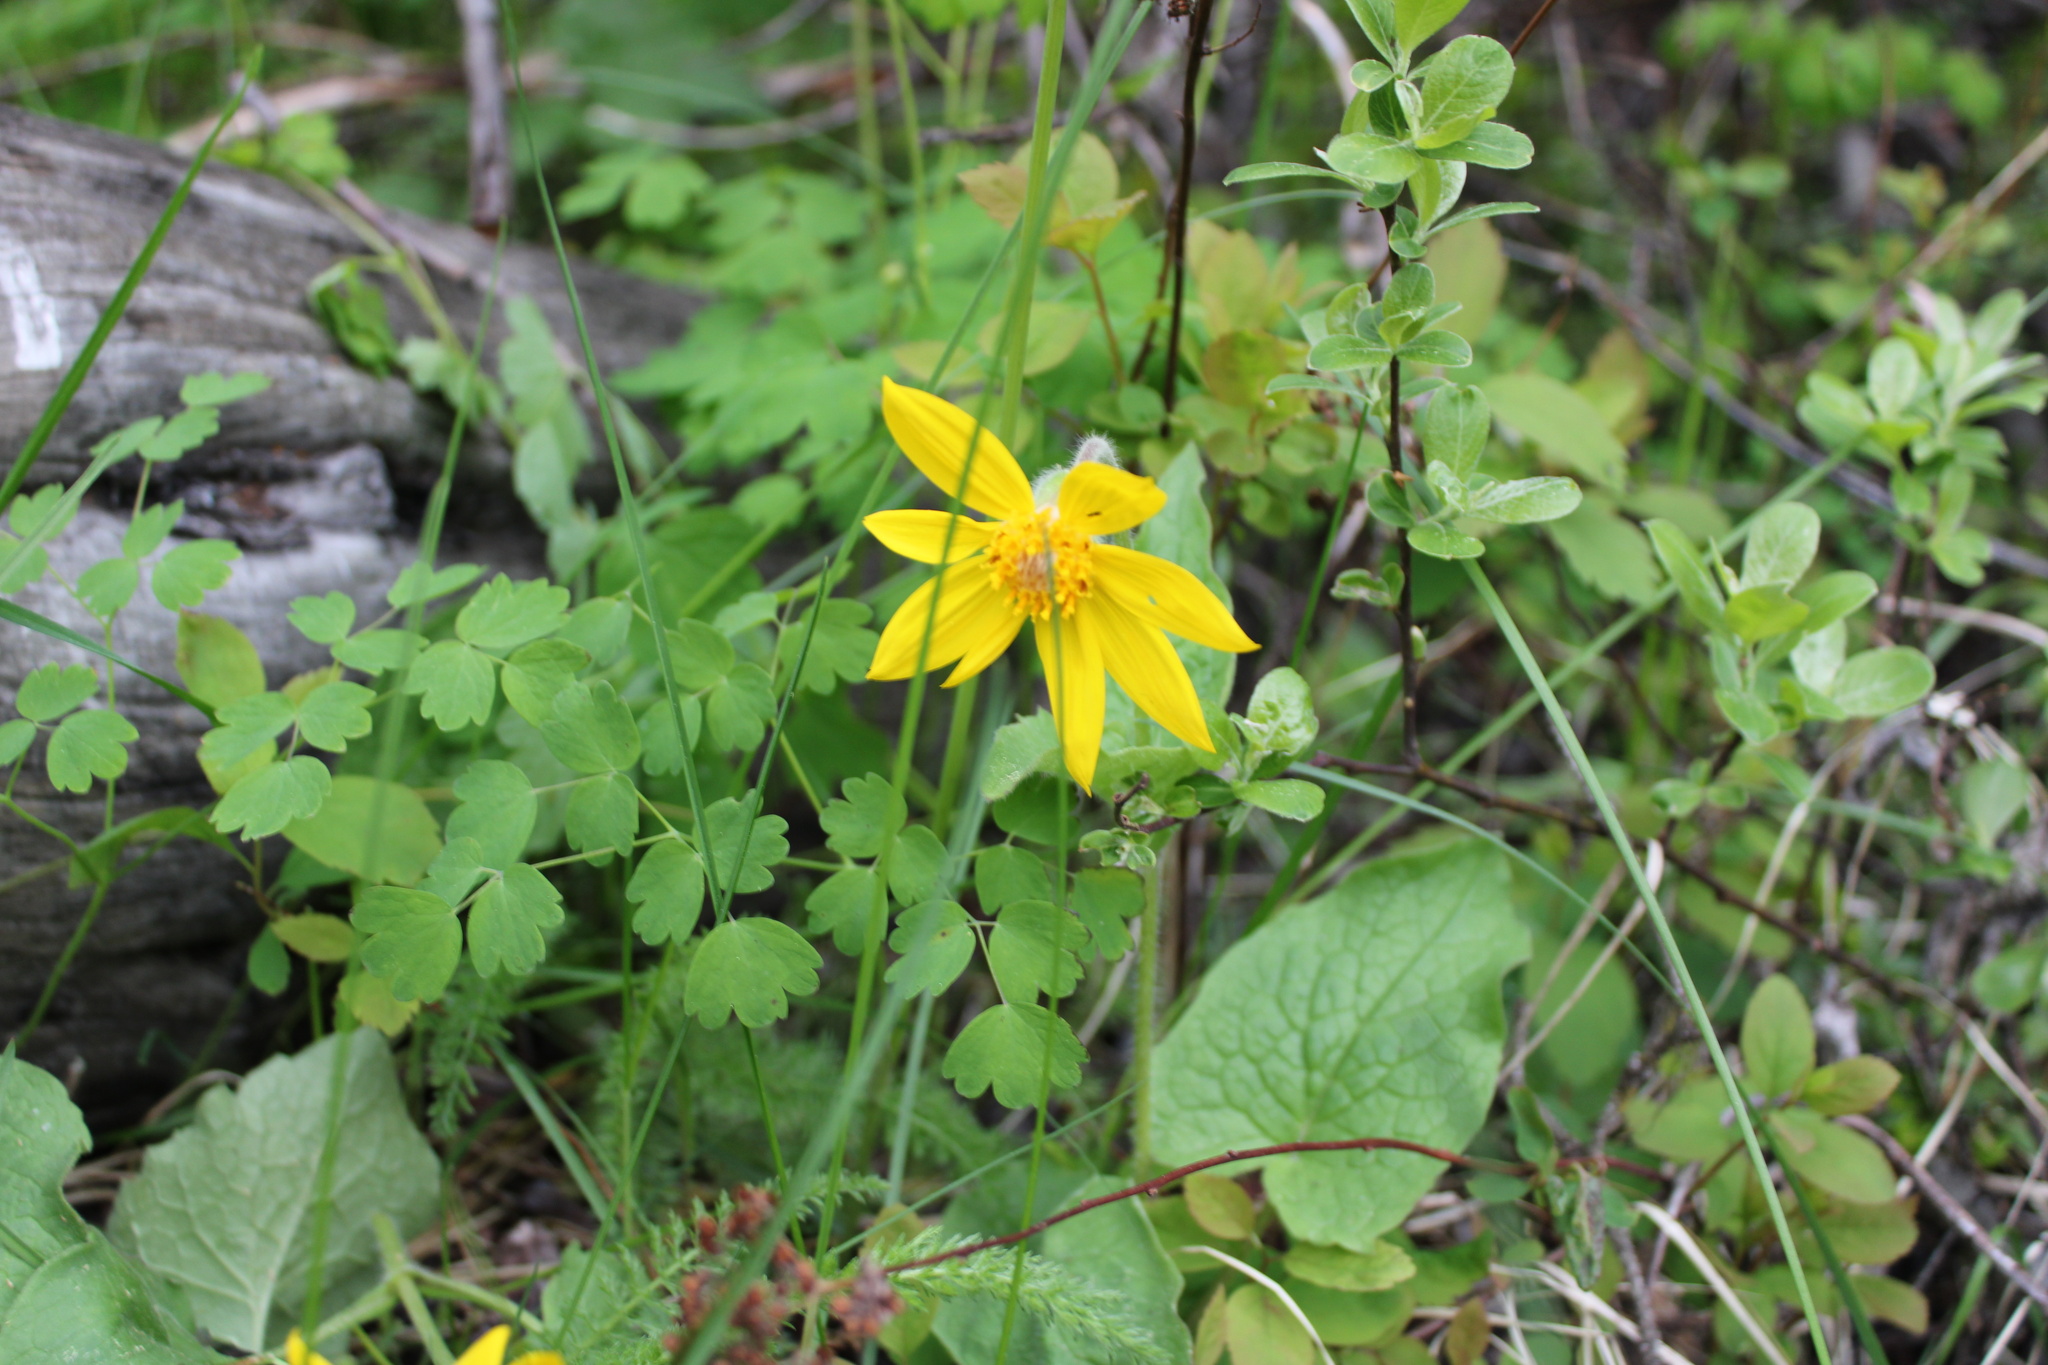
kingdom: Plantae
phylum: Tracheophyta
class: Magnoliopsida
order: Asterales
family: Asteraceae
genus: Arnica
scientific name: Arnica cordifolia
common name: Heart-leaf arnica
